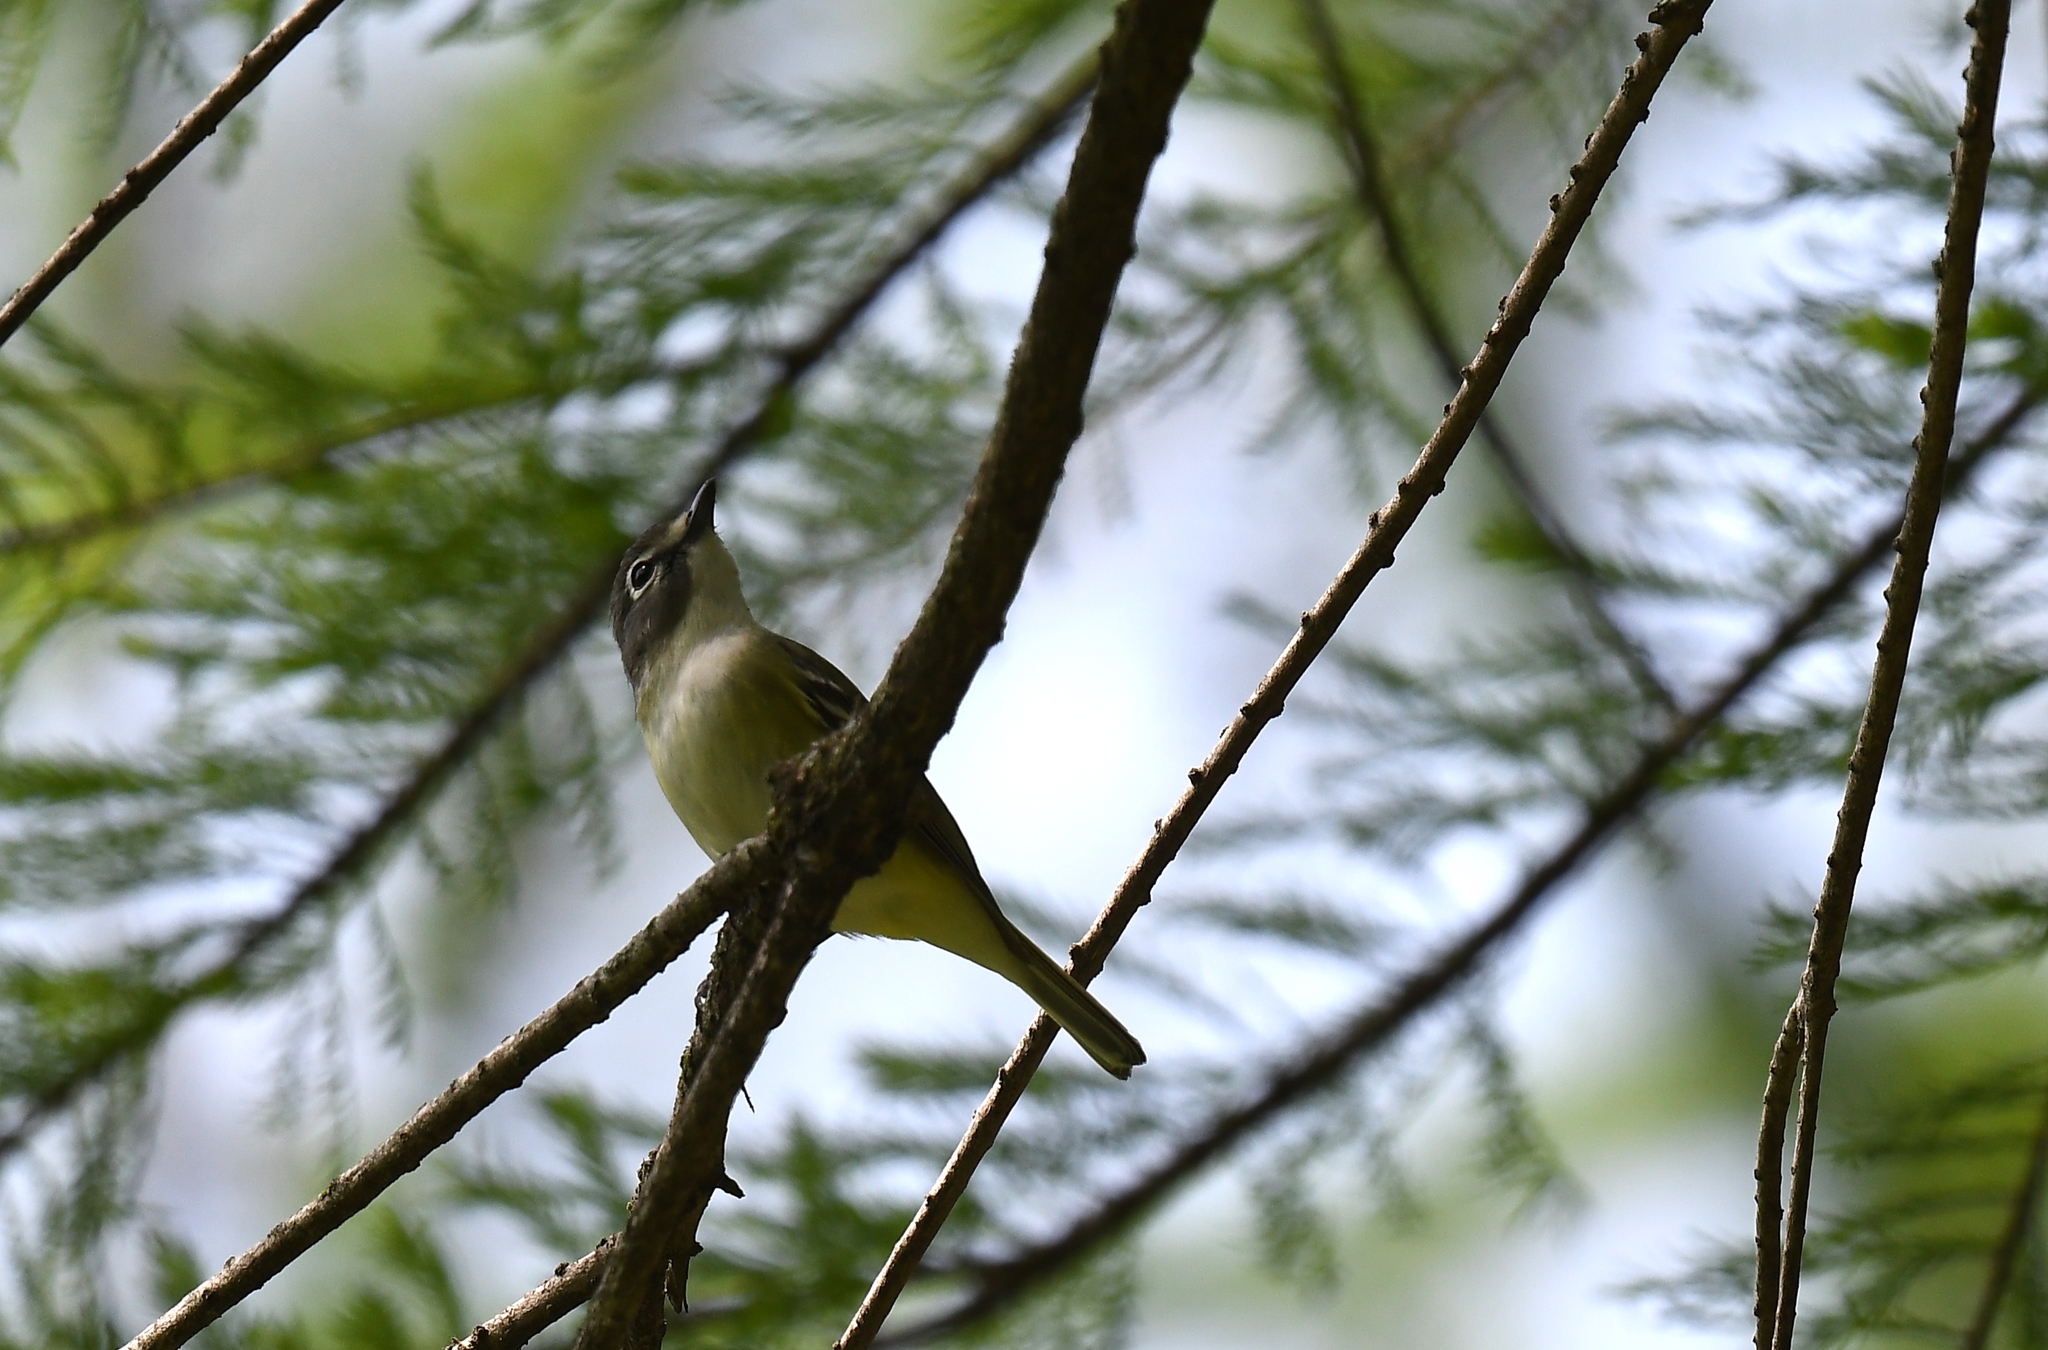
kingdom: Animalia
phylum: Chordata
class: Aves
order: Passeriformes
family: Vireonidae
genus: Vireo
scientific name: Vireo solitarius
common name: Blue-headed vireo
